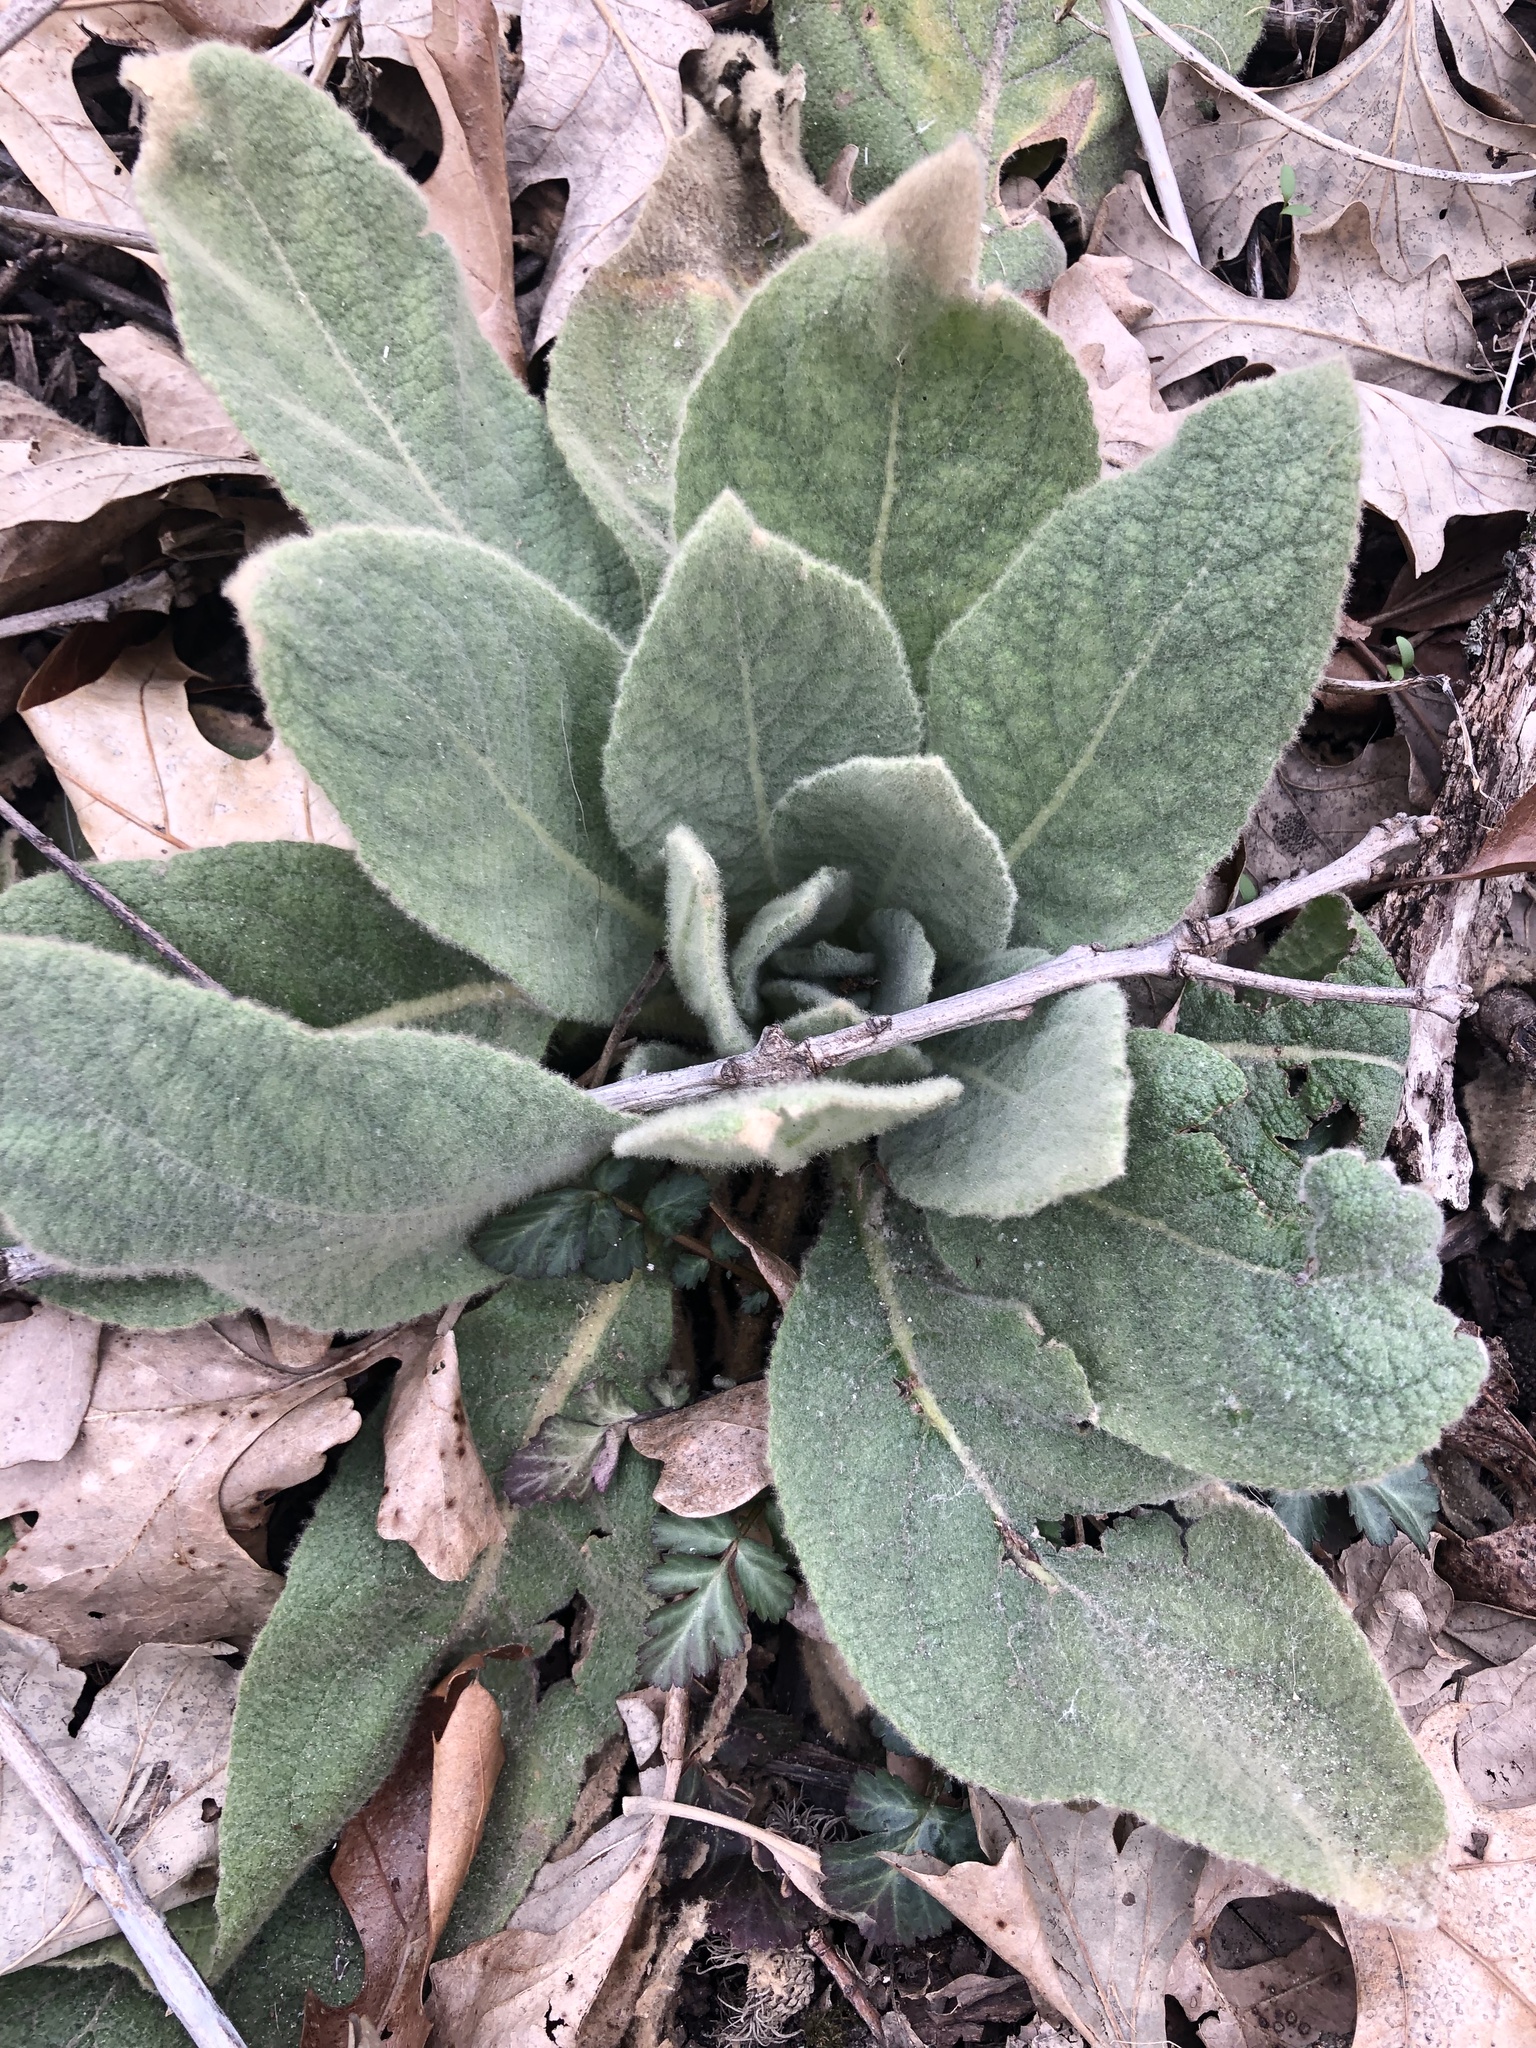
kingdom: Plantae
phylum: Tracheophyta
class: Magnoliopsida
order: Lamiales
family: Scrophulariaceae
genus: Verbascum
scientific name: Verbascum thapsus
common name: Common mullein
